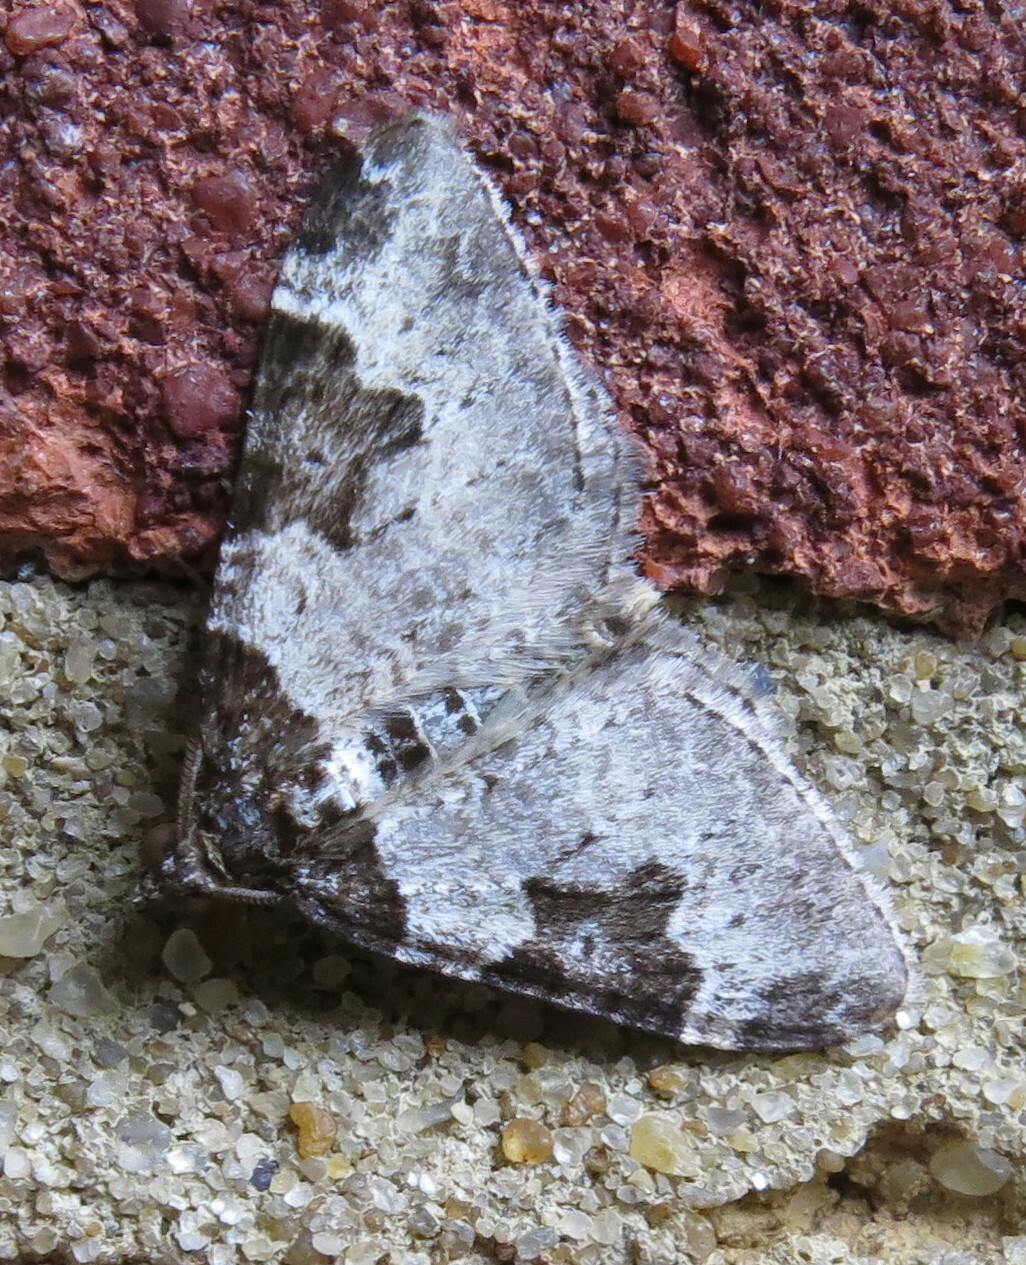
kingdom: Animalia
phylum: Arthropoda
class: Insecta
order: Lepidoptera
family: Geometridae
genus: Xanthorhoe
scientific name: Xanthorhoe fluctuata
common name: Garden carpet
